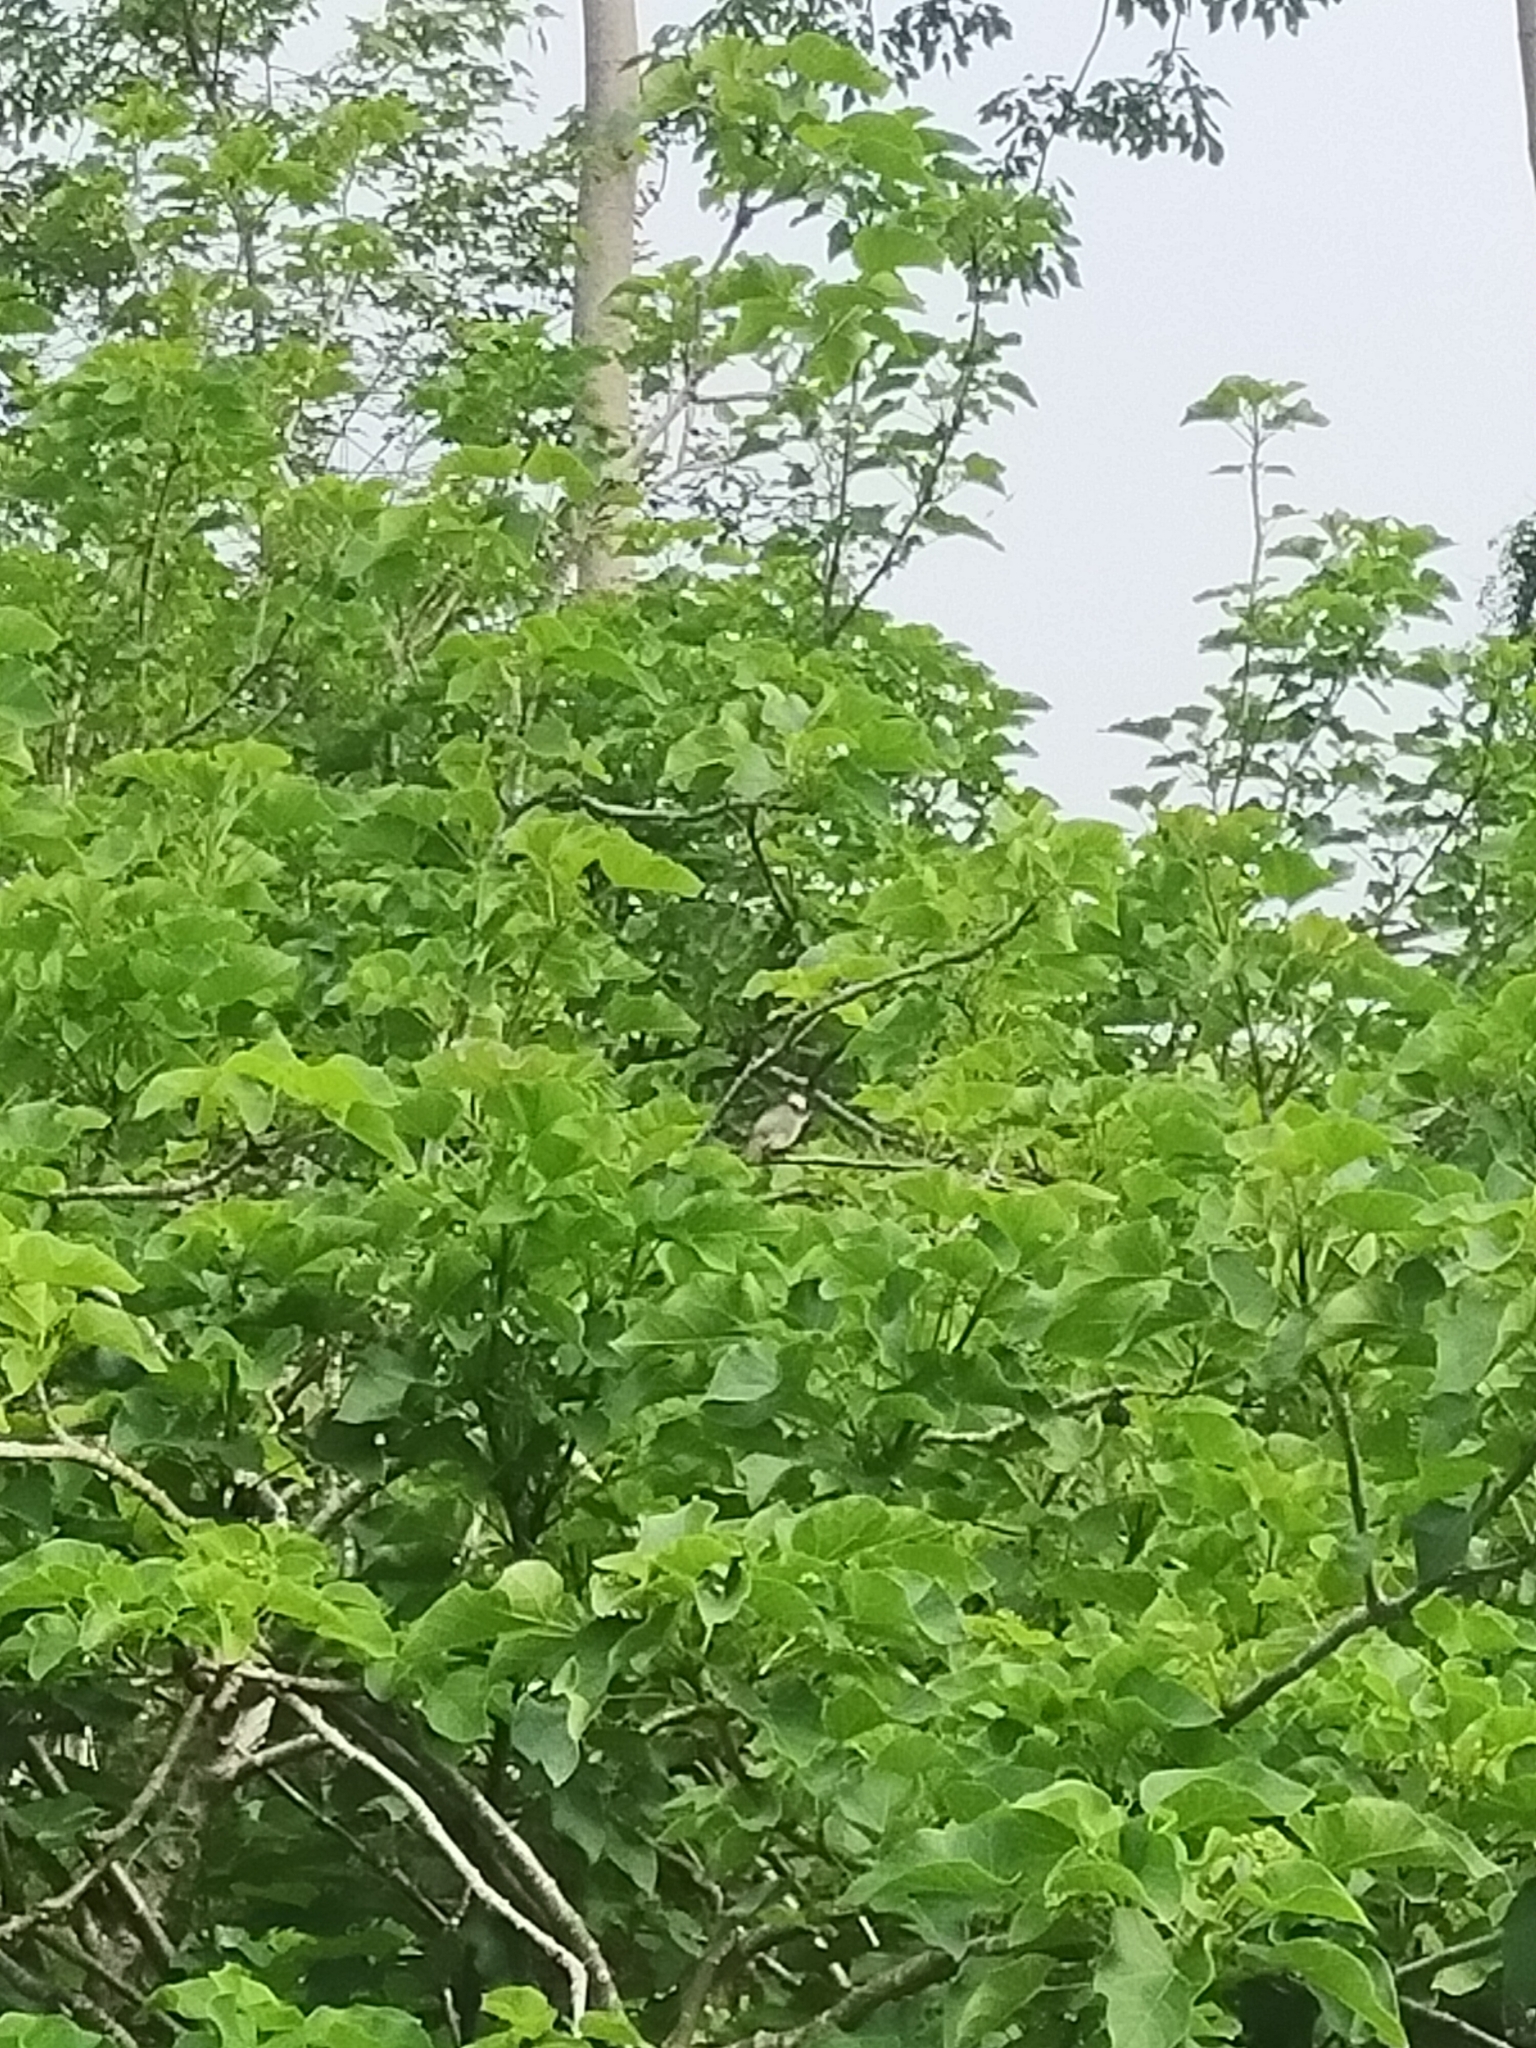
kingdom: Animalia
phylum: Chordata
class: Aves
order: Passeriformes
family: Pycnonotidae
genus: Pycnonotus
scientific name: Pycnonotus sinensis
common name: Light-vented bulbul
